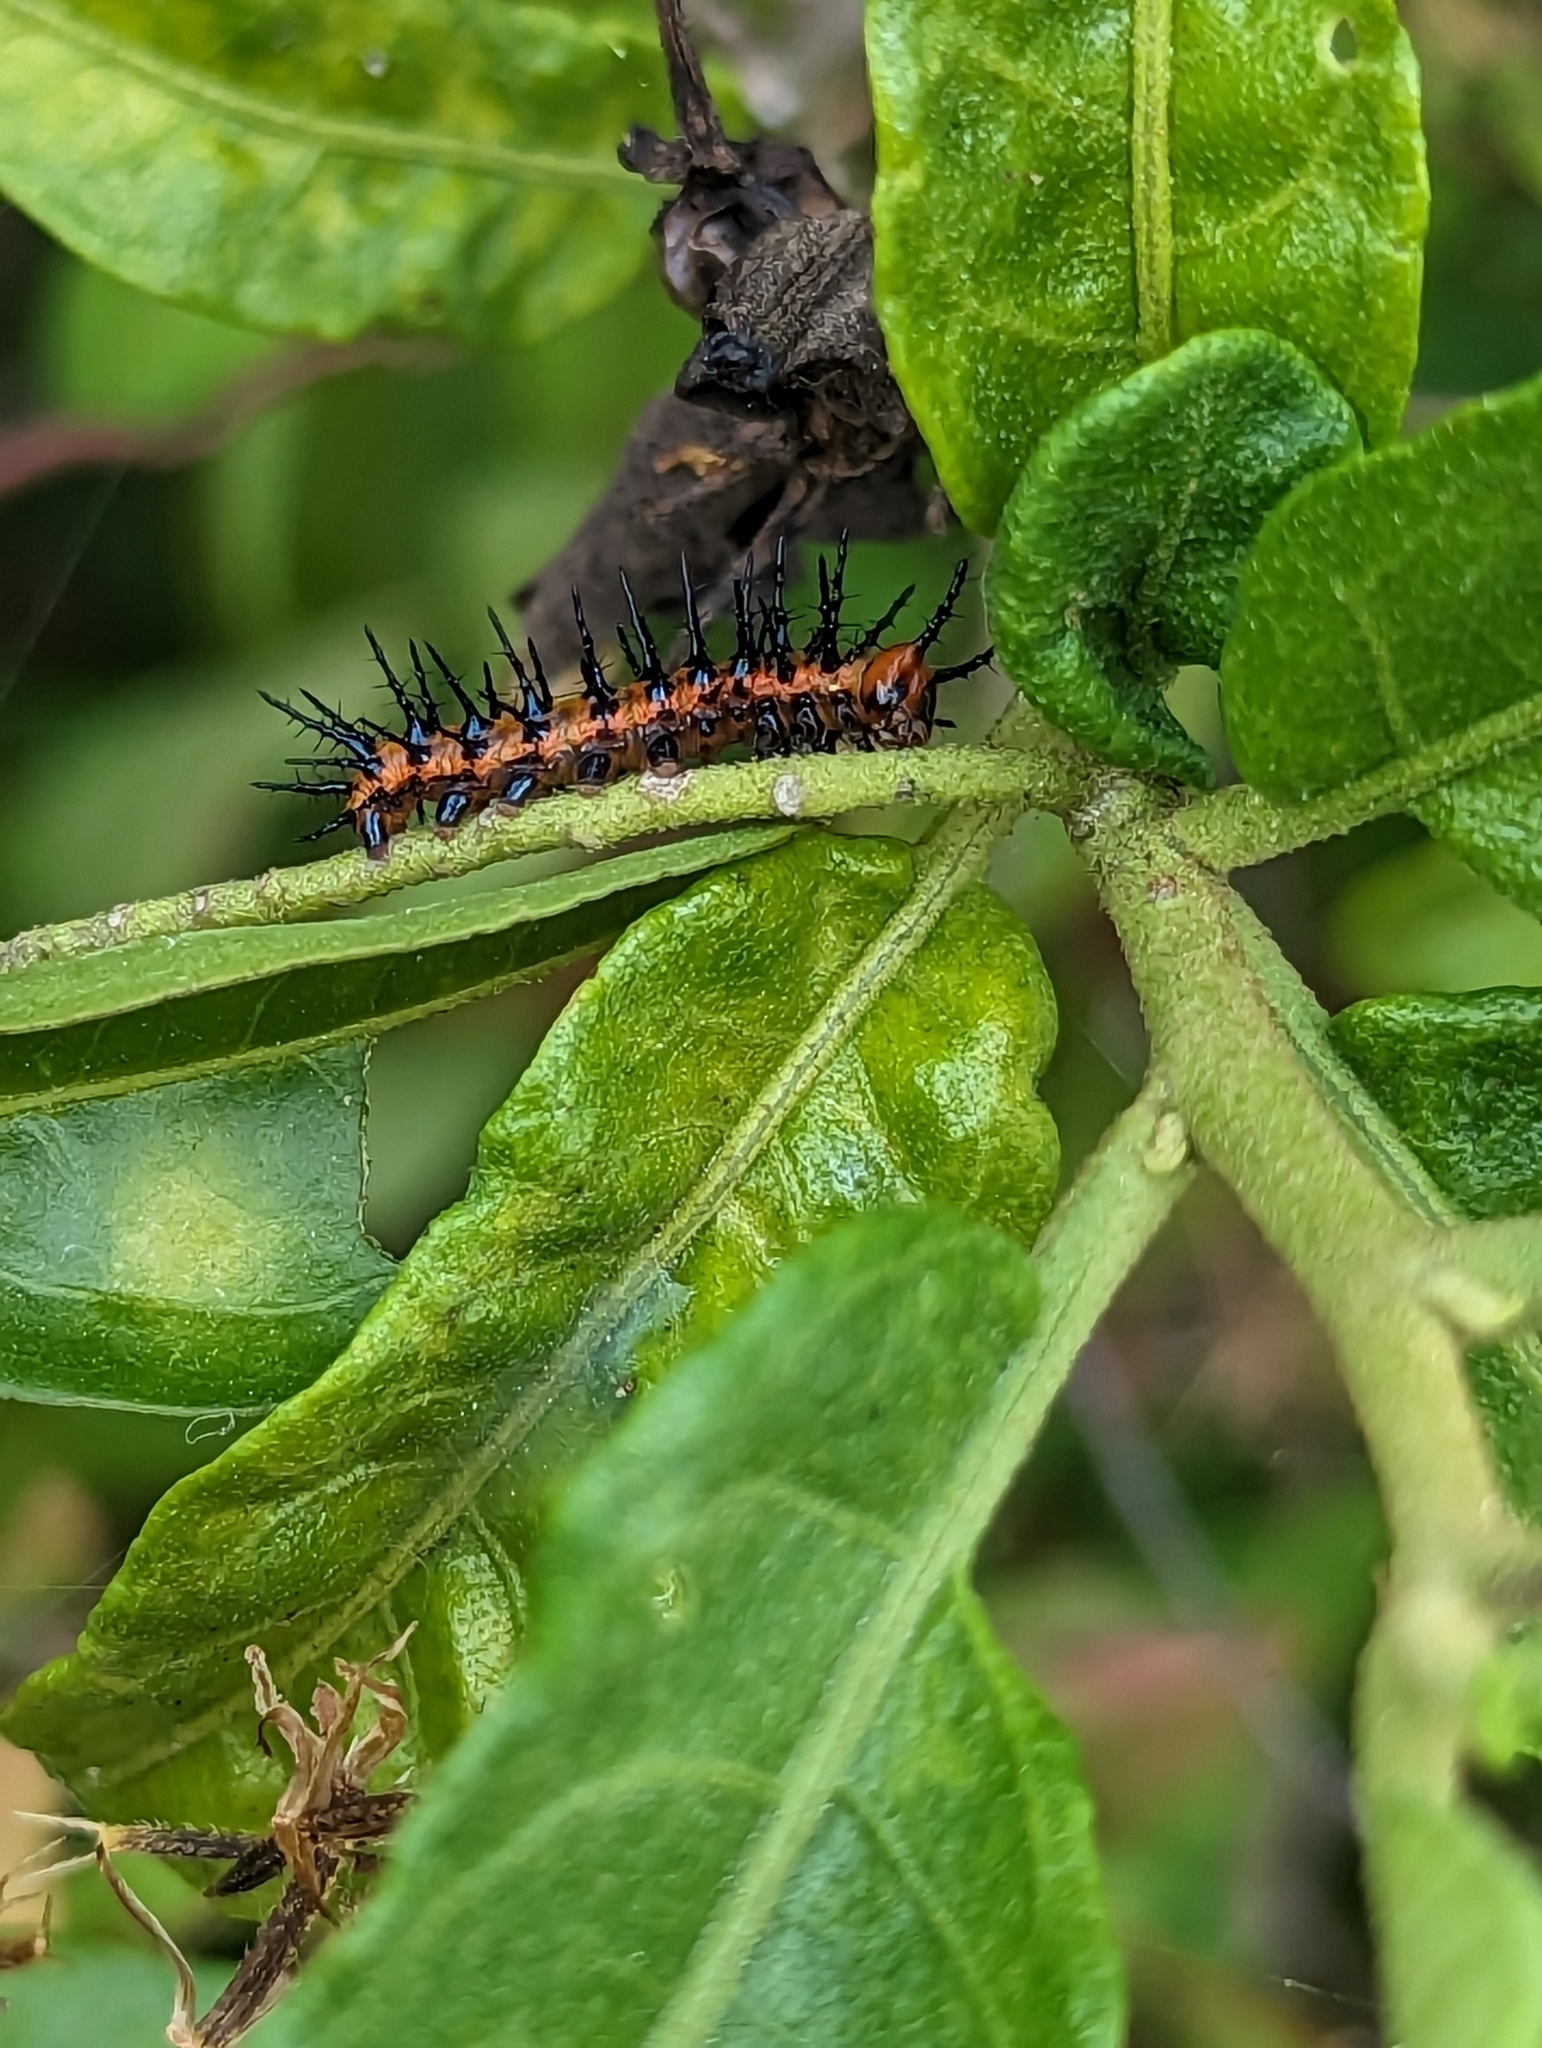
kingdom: Animalia
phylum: Arthropoda
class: Insecta
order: Lepidoptera
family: Nymphalidae
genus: Dione
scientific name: Dione vanillae
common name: Gulf fritillary
